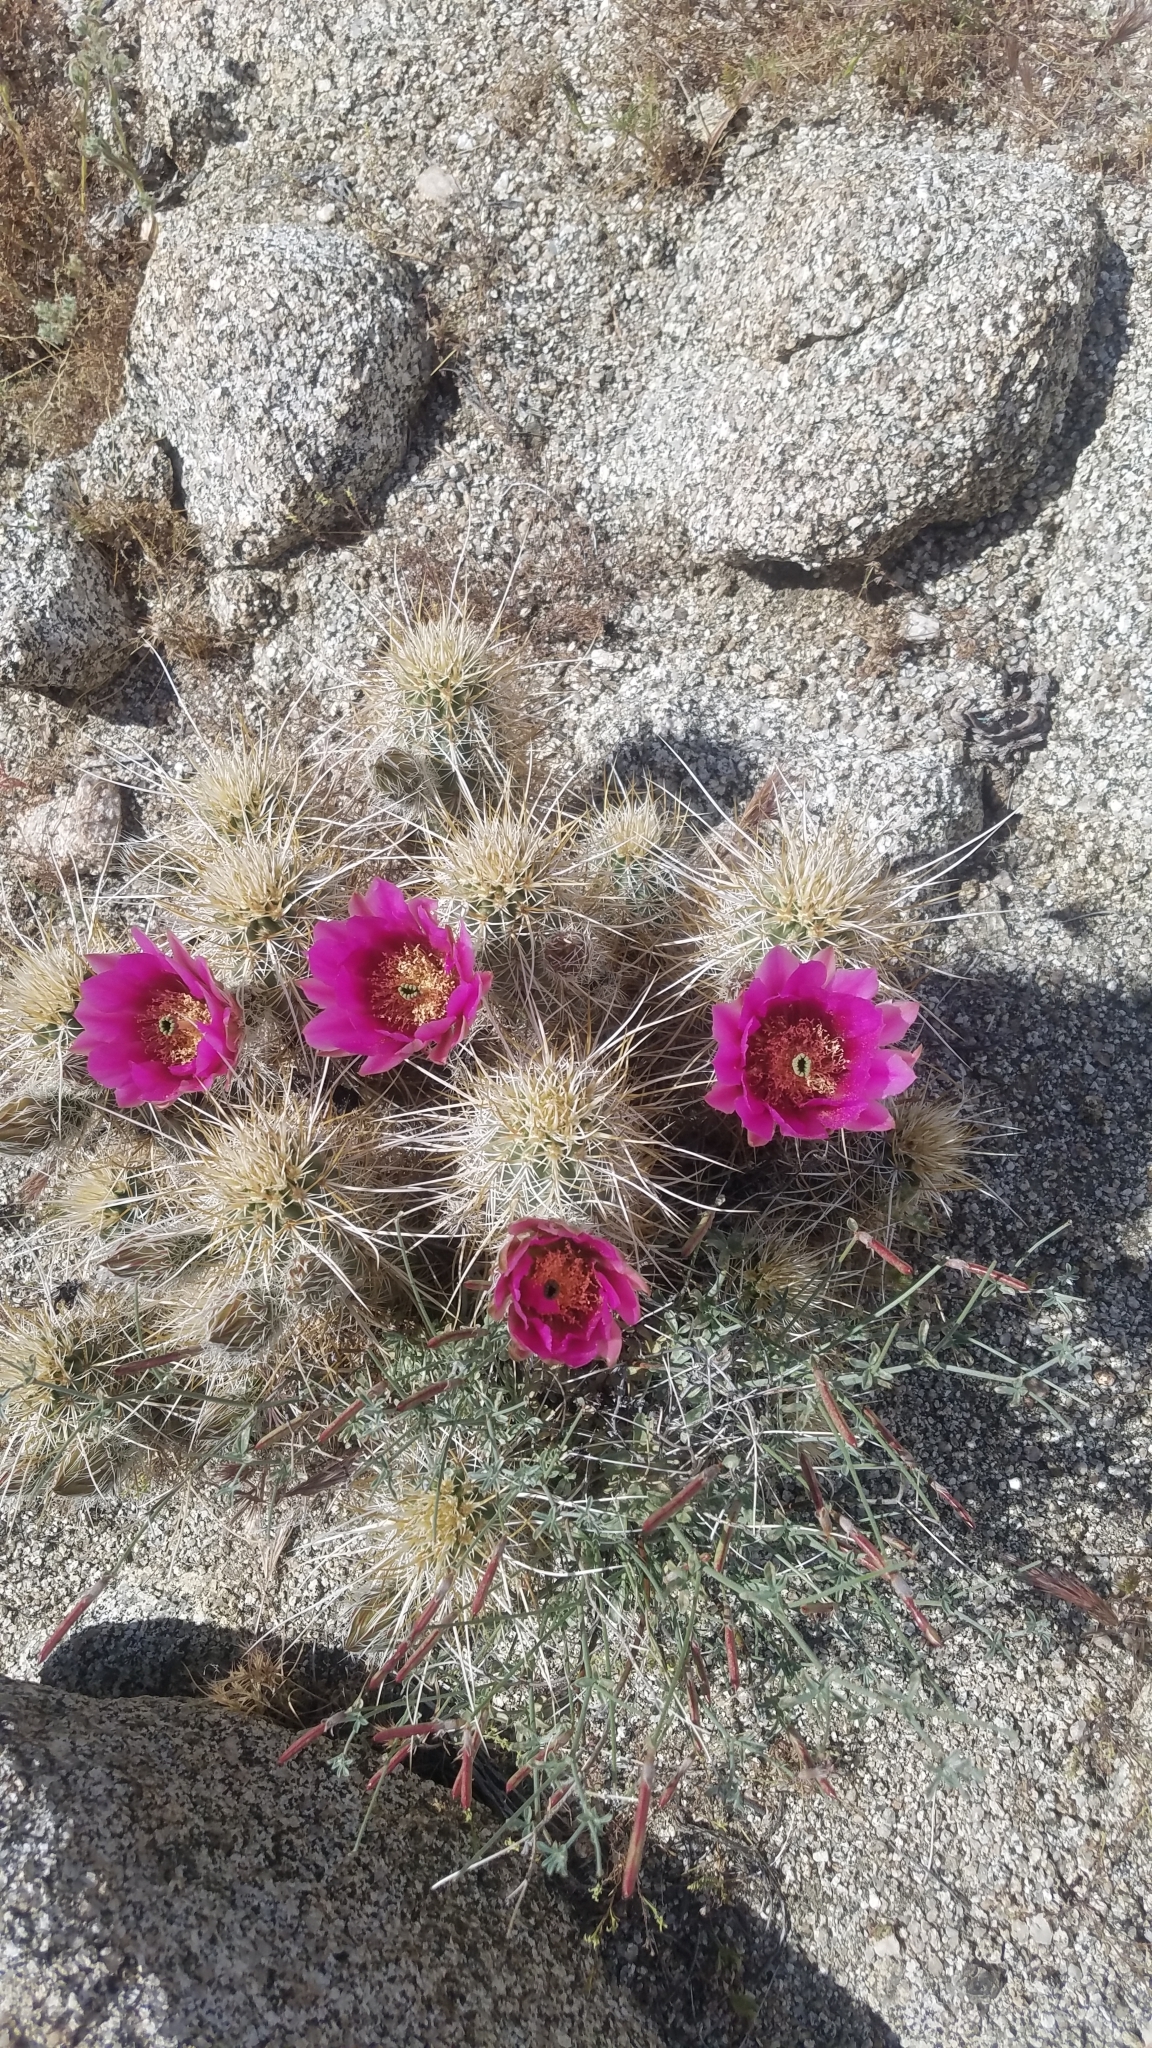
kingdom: Plantae
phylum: Tracheophyta
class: Magnoliopsida
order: Caryophyllales
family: Cactaceae
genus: Echinocereus
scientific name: Echinocereus engelmannii
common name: Engelmann's hedgehog cactus
